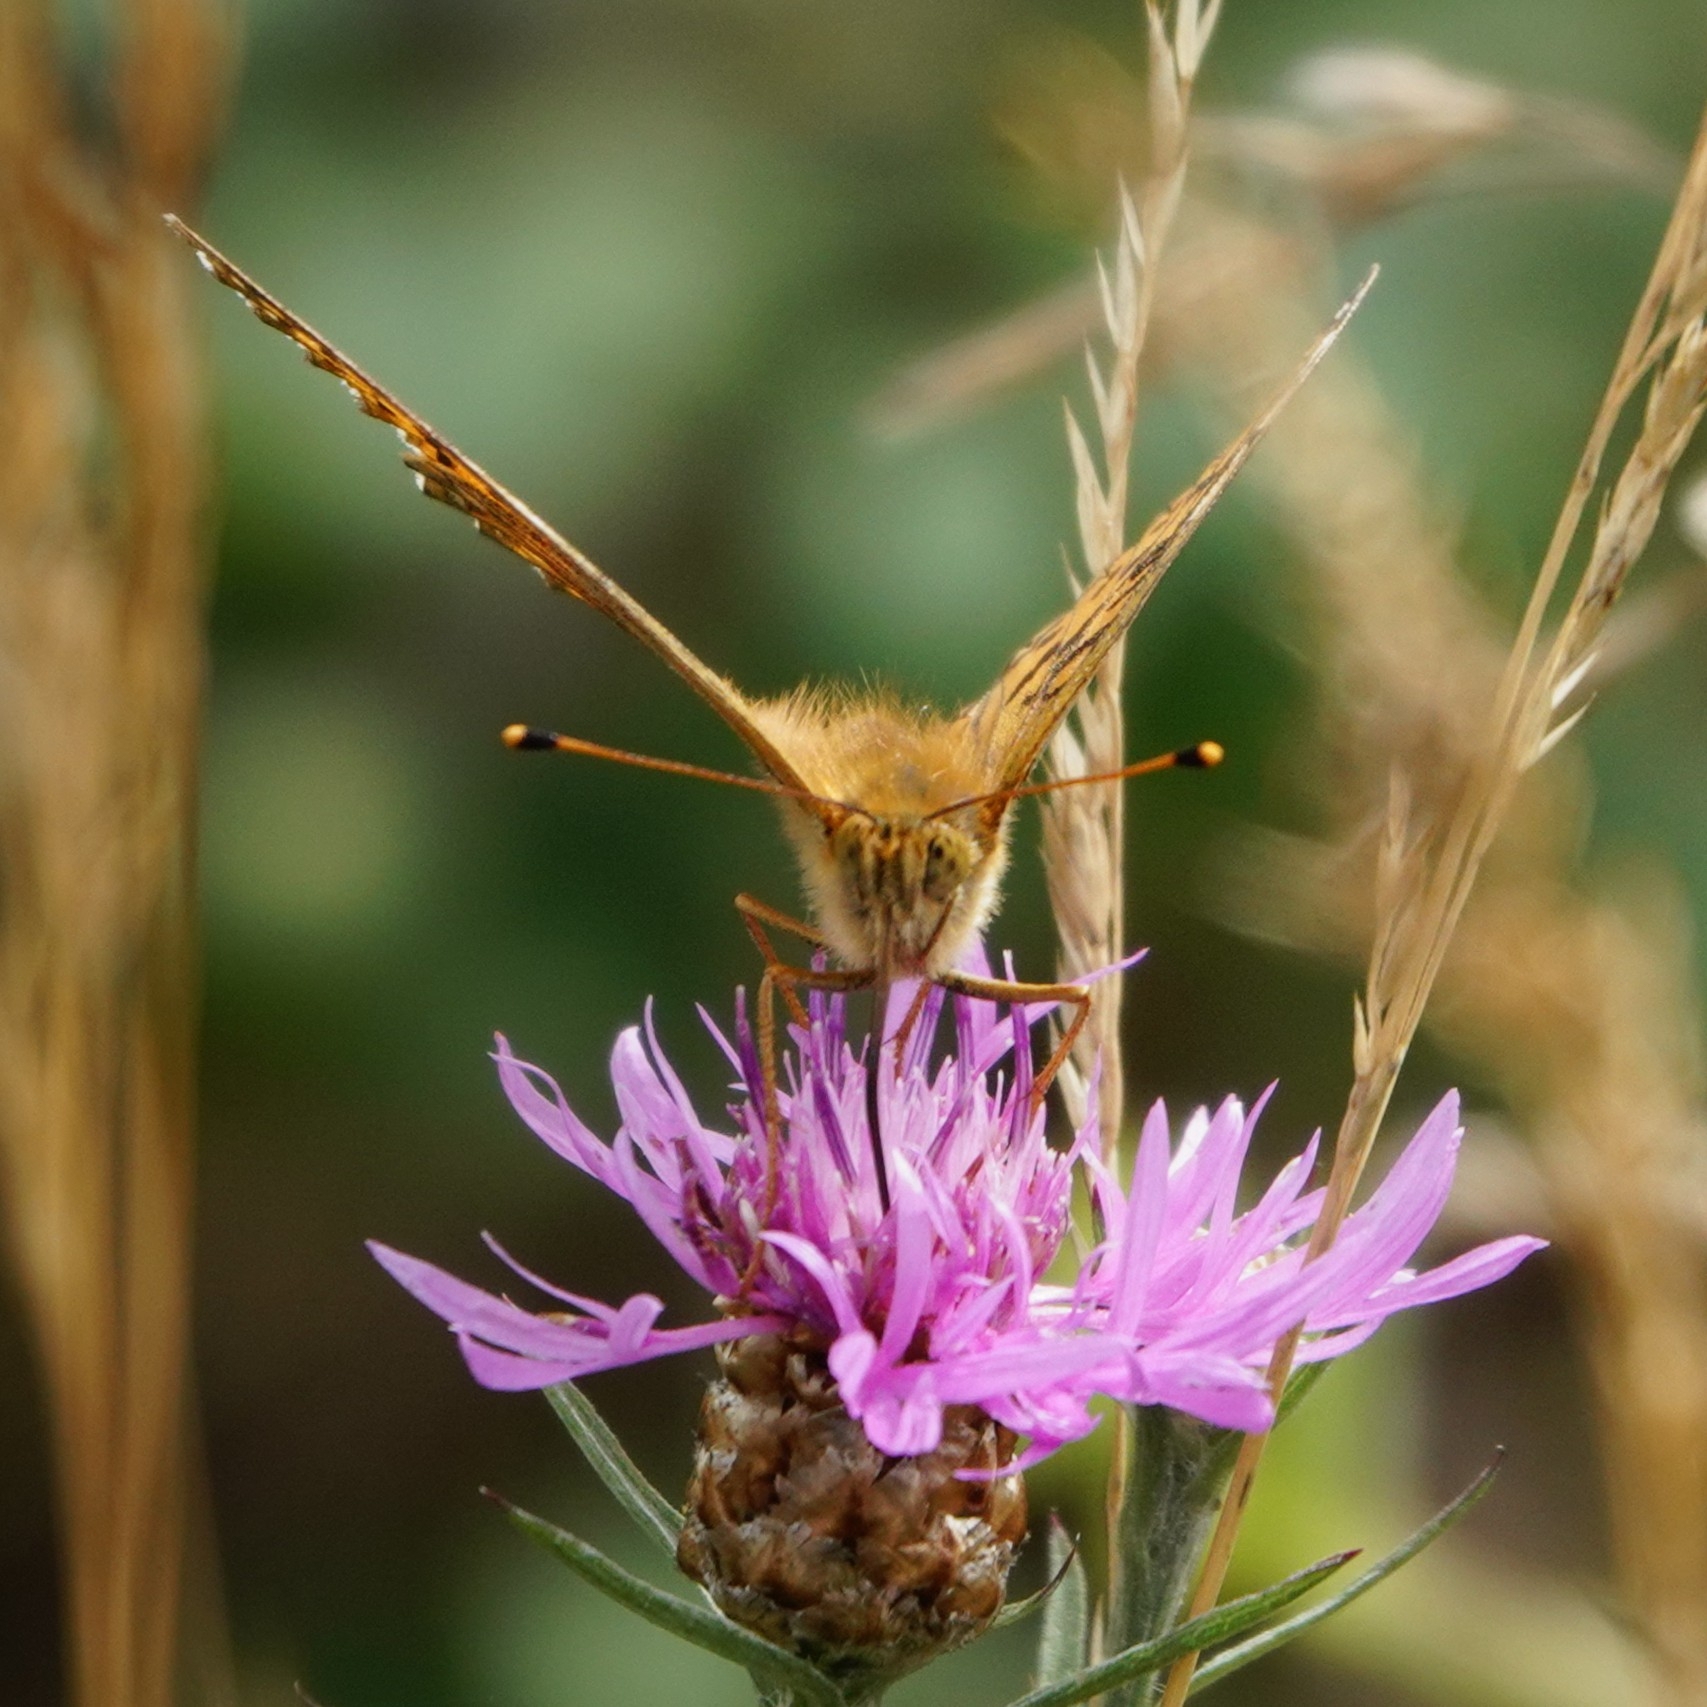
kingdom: Animalia
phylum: Arthropoda
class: Insecta
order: Lepidoptera
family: Nymphalidae
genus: Speyeria
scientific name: Speyeria aglaja
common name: Dark green fritillary
